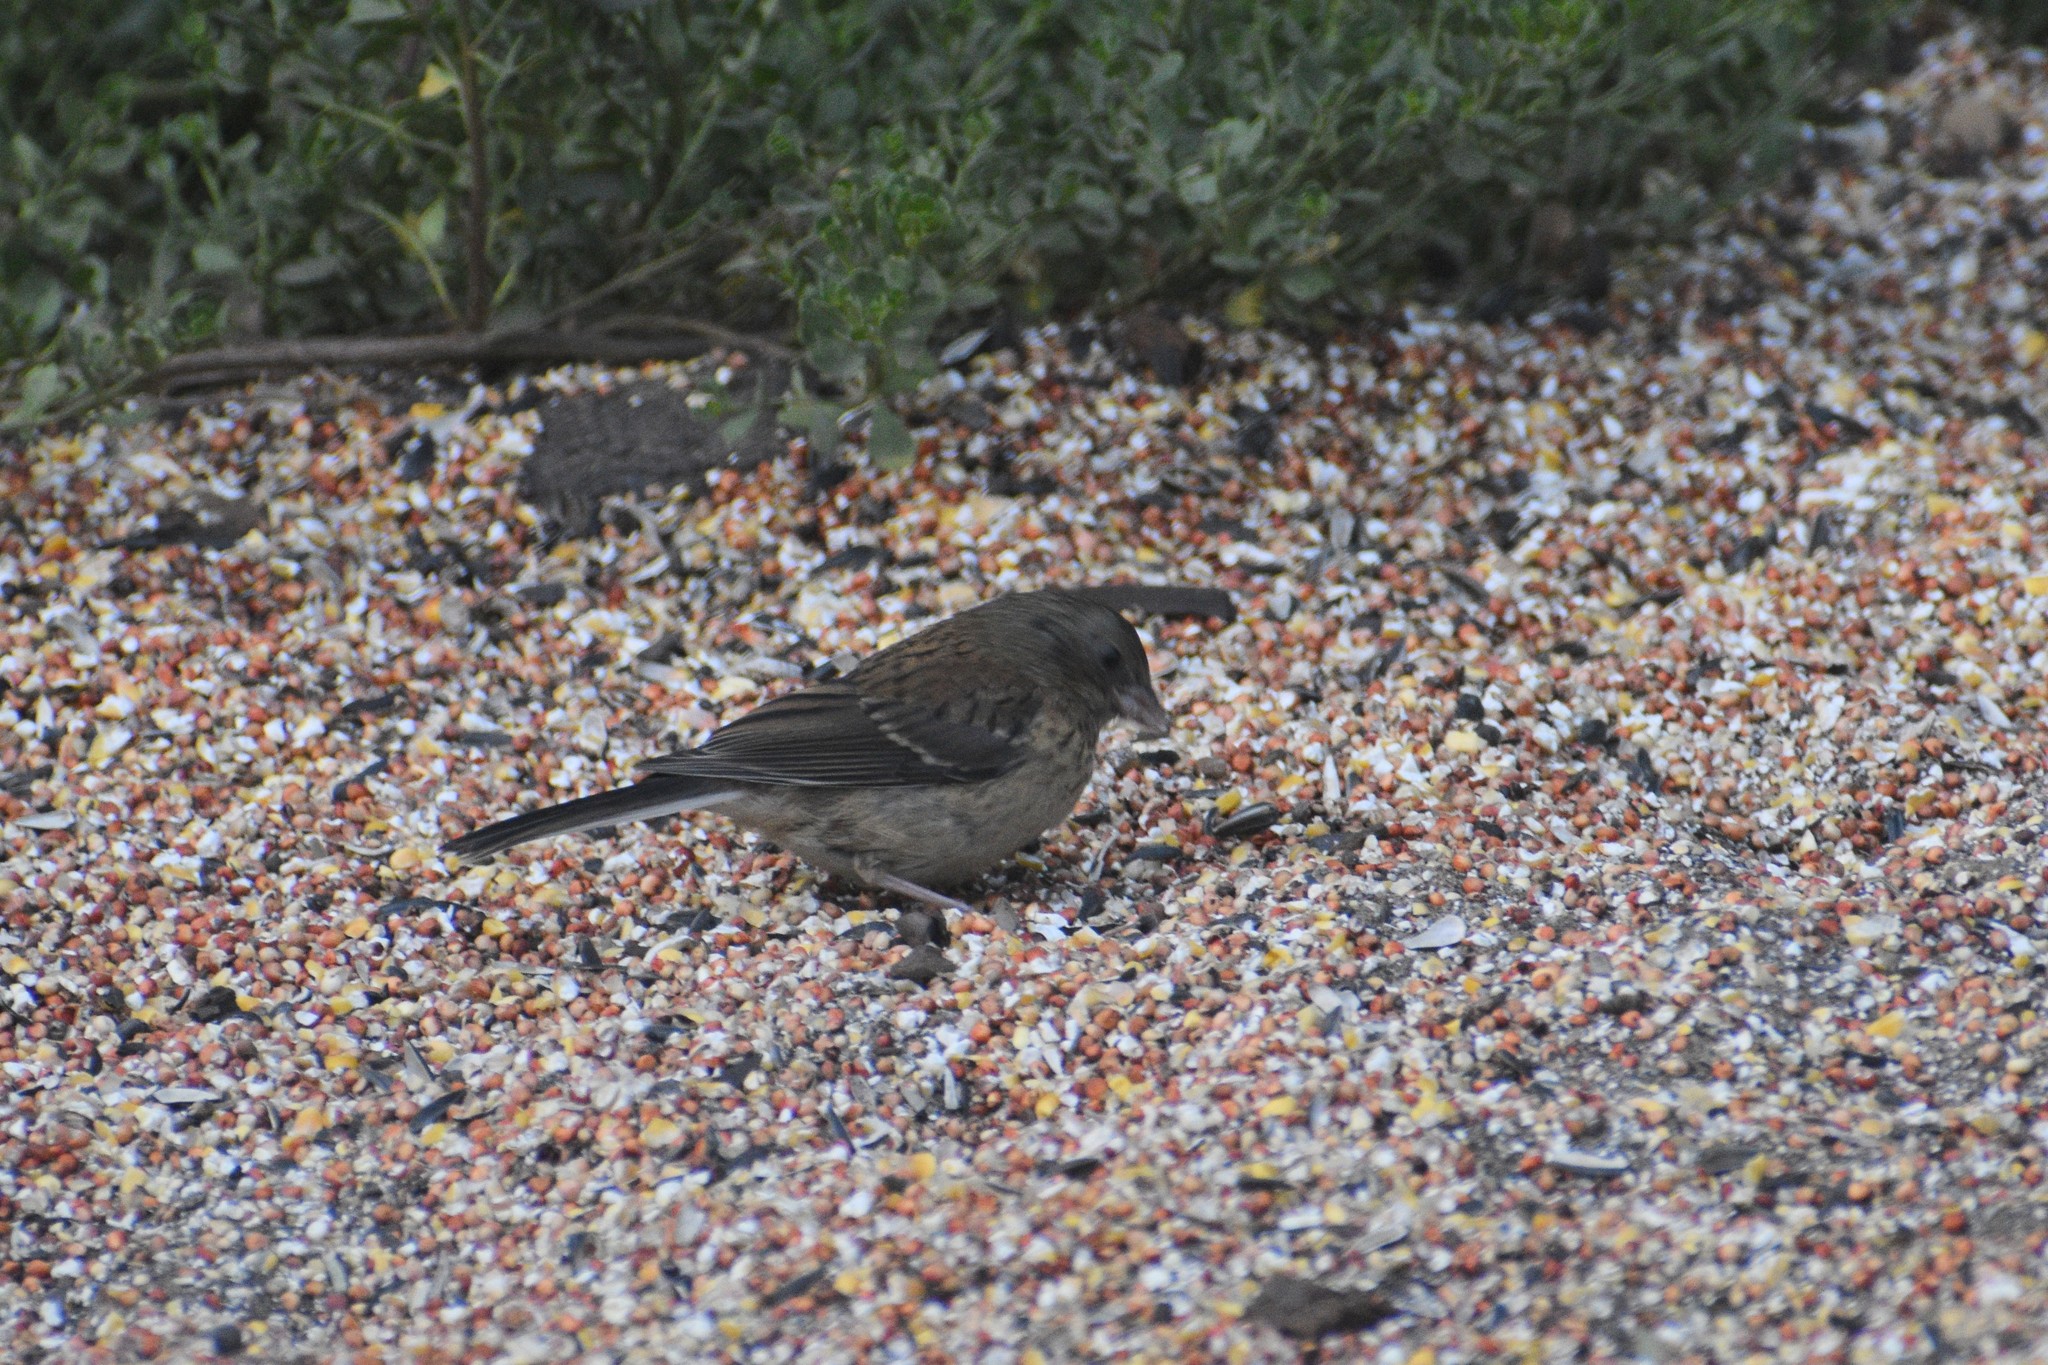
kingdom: Animalia
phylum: Chordata
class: Aves
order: Passeriformes
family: Passerellidae
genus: Junco
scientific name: Junco hyemalis
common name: Dark-eyed junco
